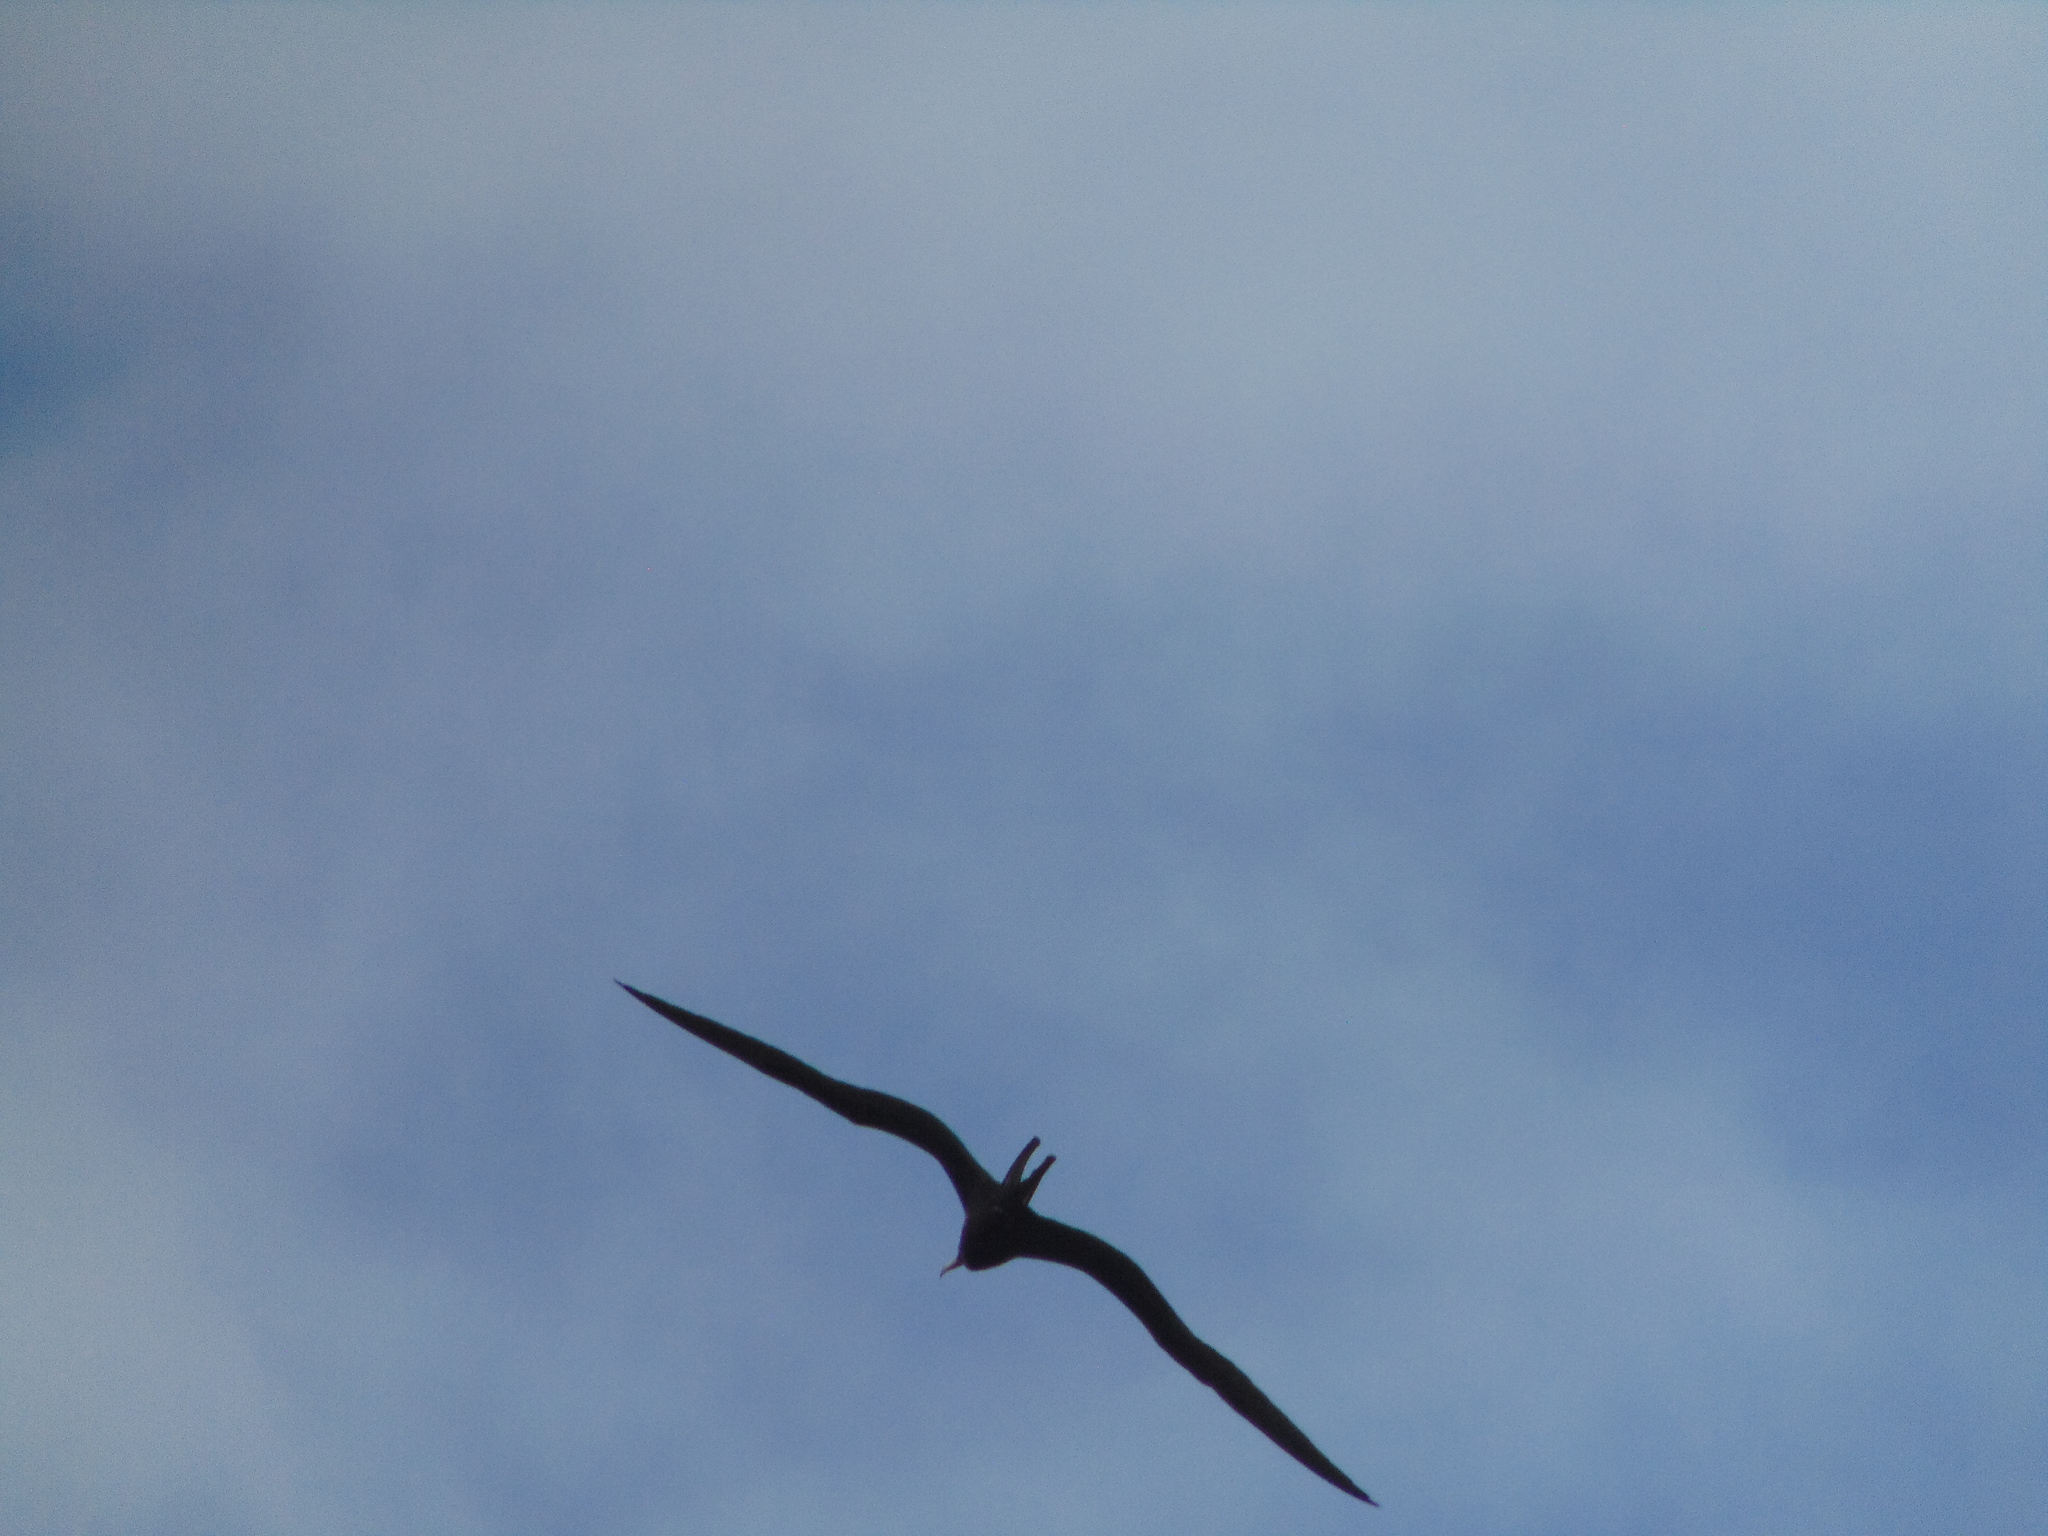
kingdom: Animalia
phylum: Chordata
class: Aves
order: Suliformes
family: Fregatidae
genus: Fregata
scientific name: Fregata magnificens
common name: Magnificent frigatebird
